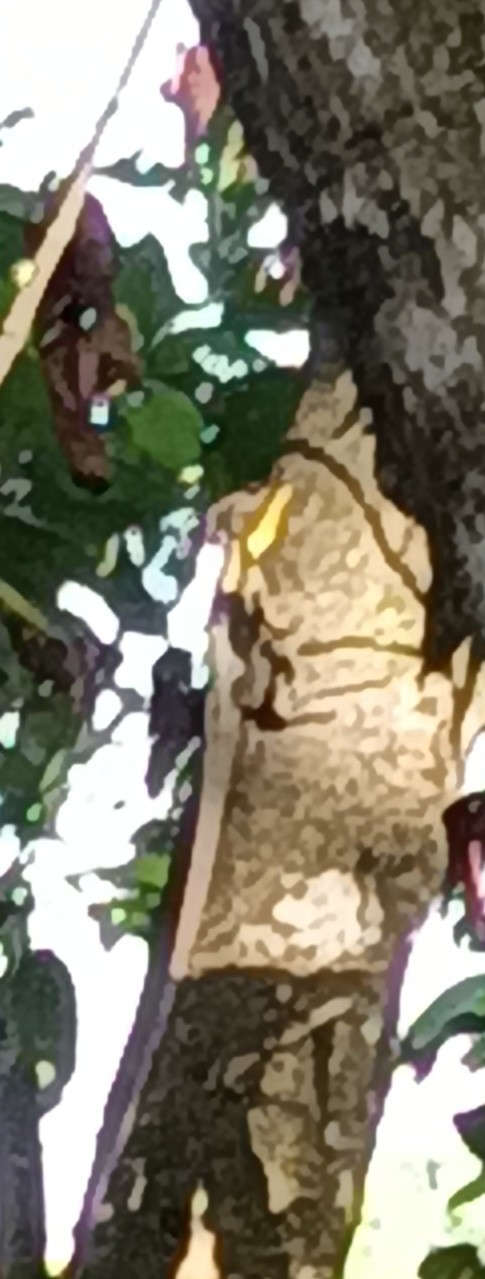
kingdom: Animalia
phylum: Chordata
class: Squamata
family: Corytophanidae
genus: Basiliscus
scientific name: Basiliscus vittatus
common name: Brown basilisk
